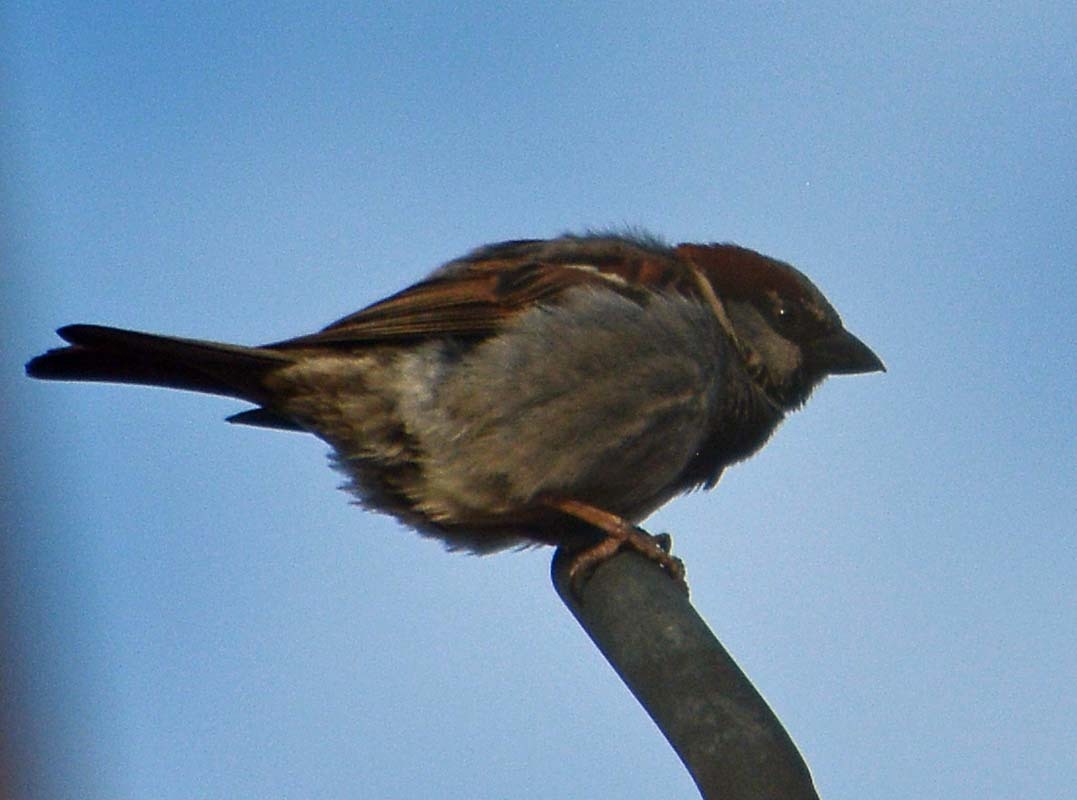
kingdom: Animalia
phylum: Chordata
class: Aves
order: Passeriformes
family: Passeridae
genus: Passer
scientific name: Passer domesticus
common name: House sparrow
